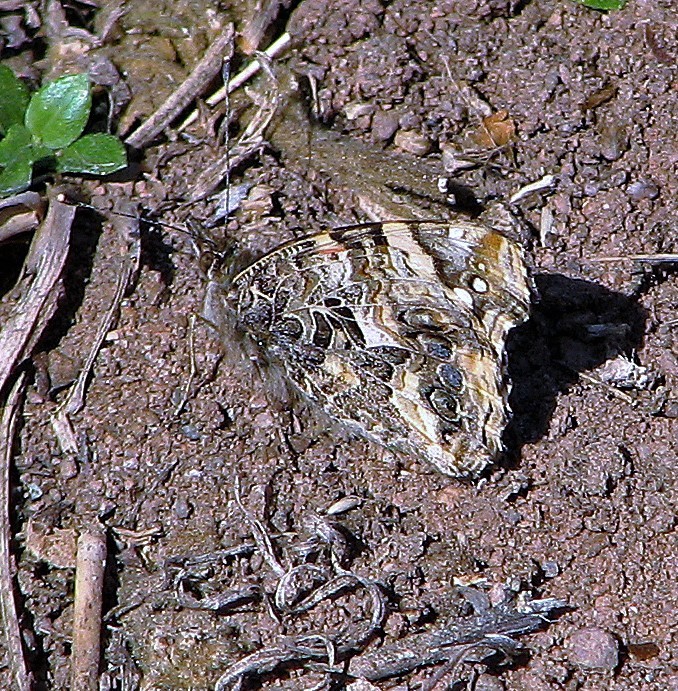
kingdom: Animalia
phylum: Arthropoda
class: Insecta
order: Lepidoptera
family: Nymphalidae
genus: Vanessa
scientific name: Vanessa carye
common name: Subtropical lady
